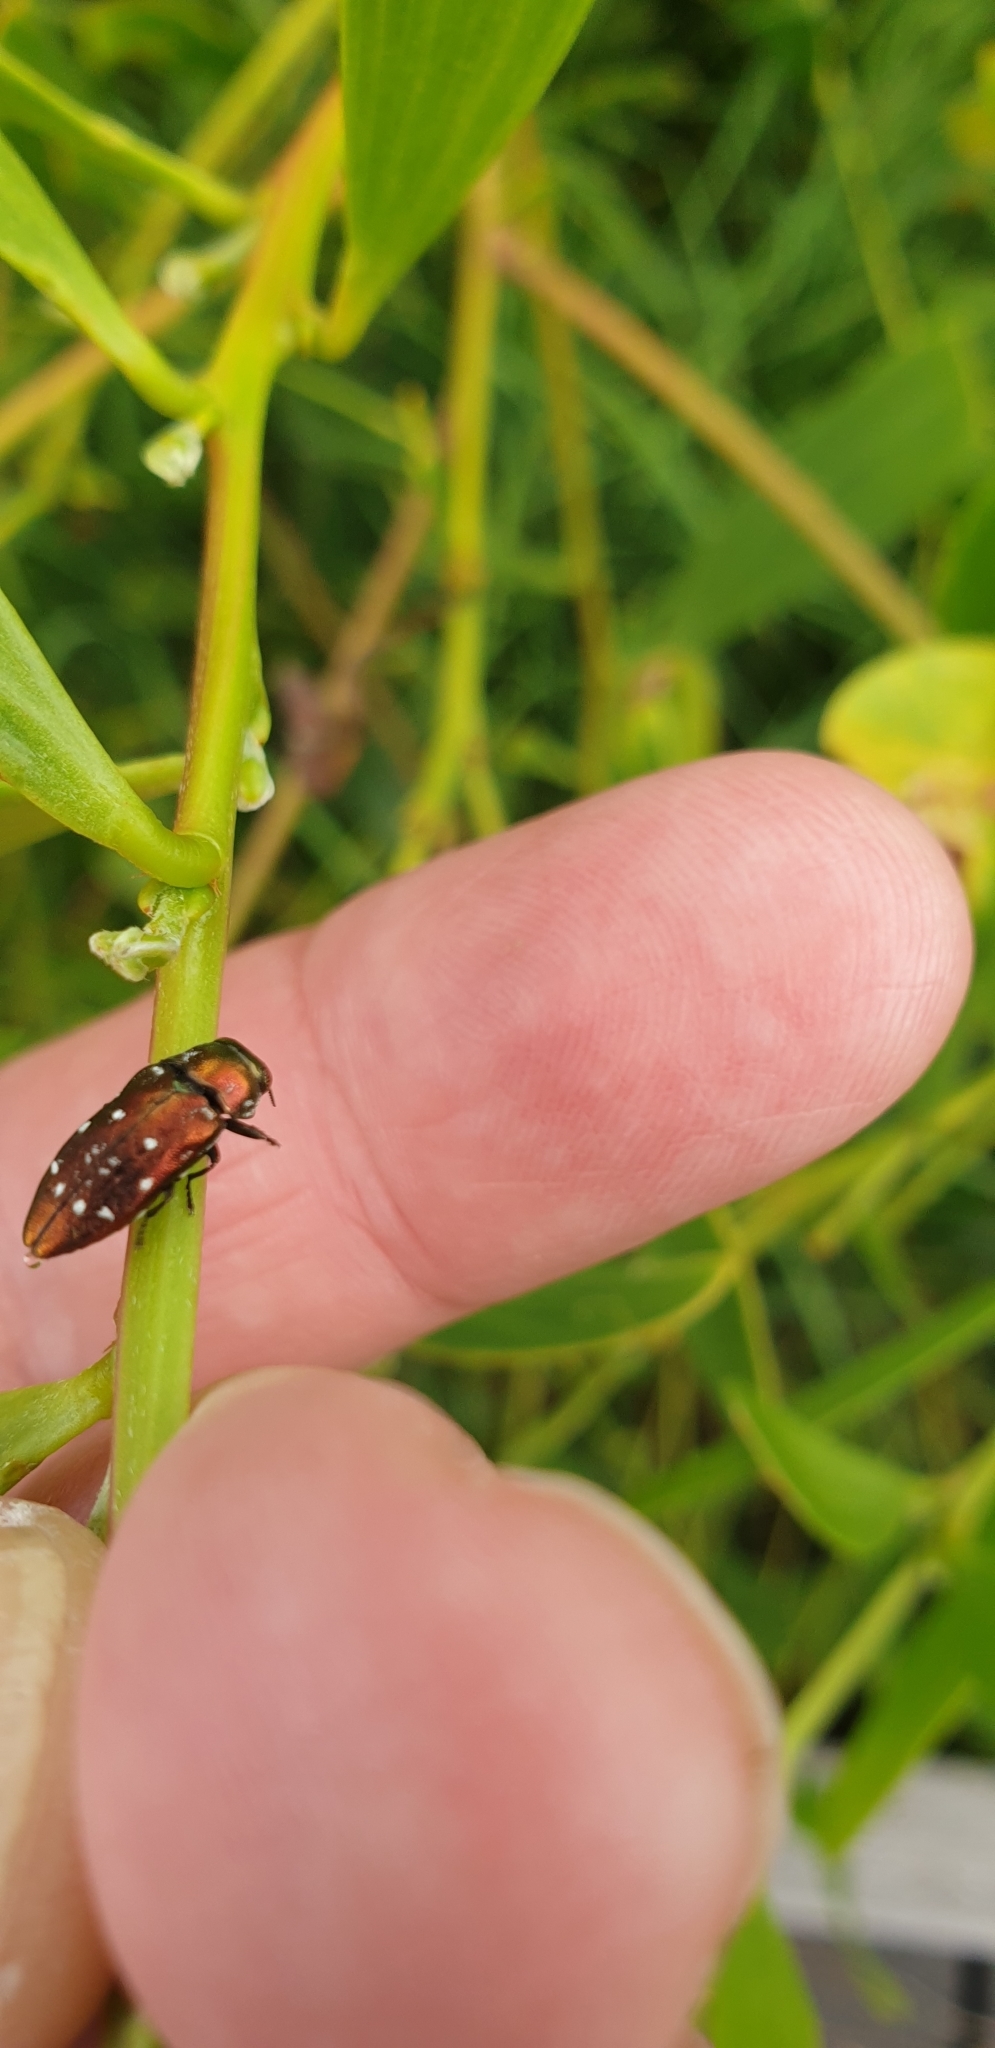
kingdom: Animalia
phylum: Arthropoda
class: Insecta
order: Coleoptera
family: Buprestidae
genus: Diphucrania
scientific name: Diphucrania albosparsa
